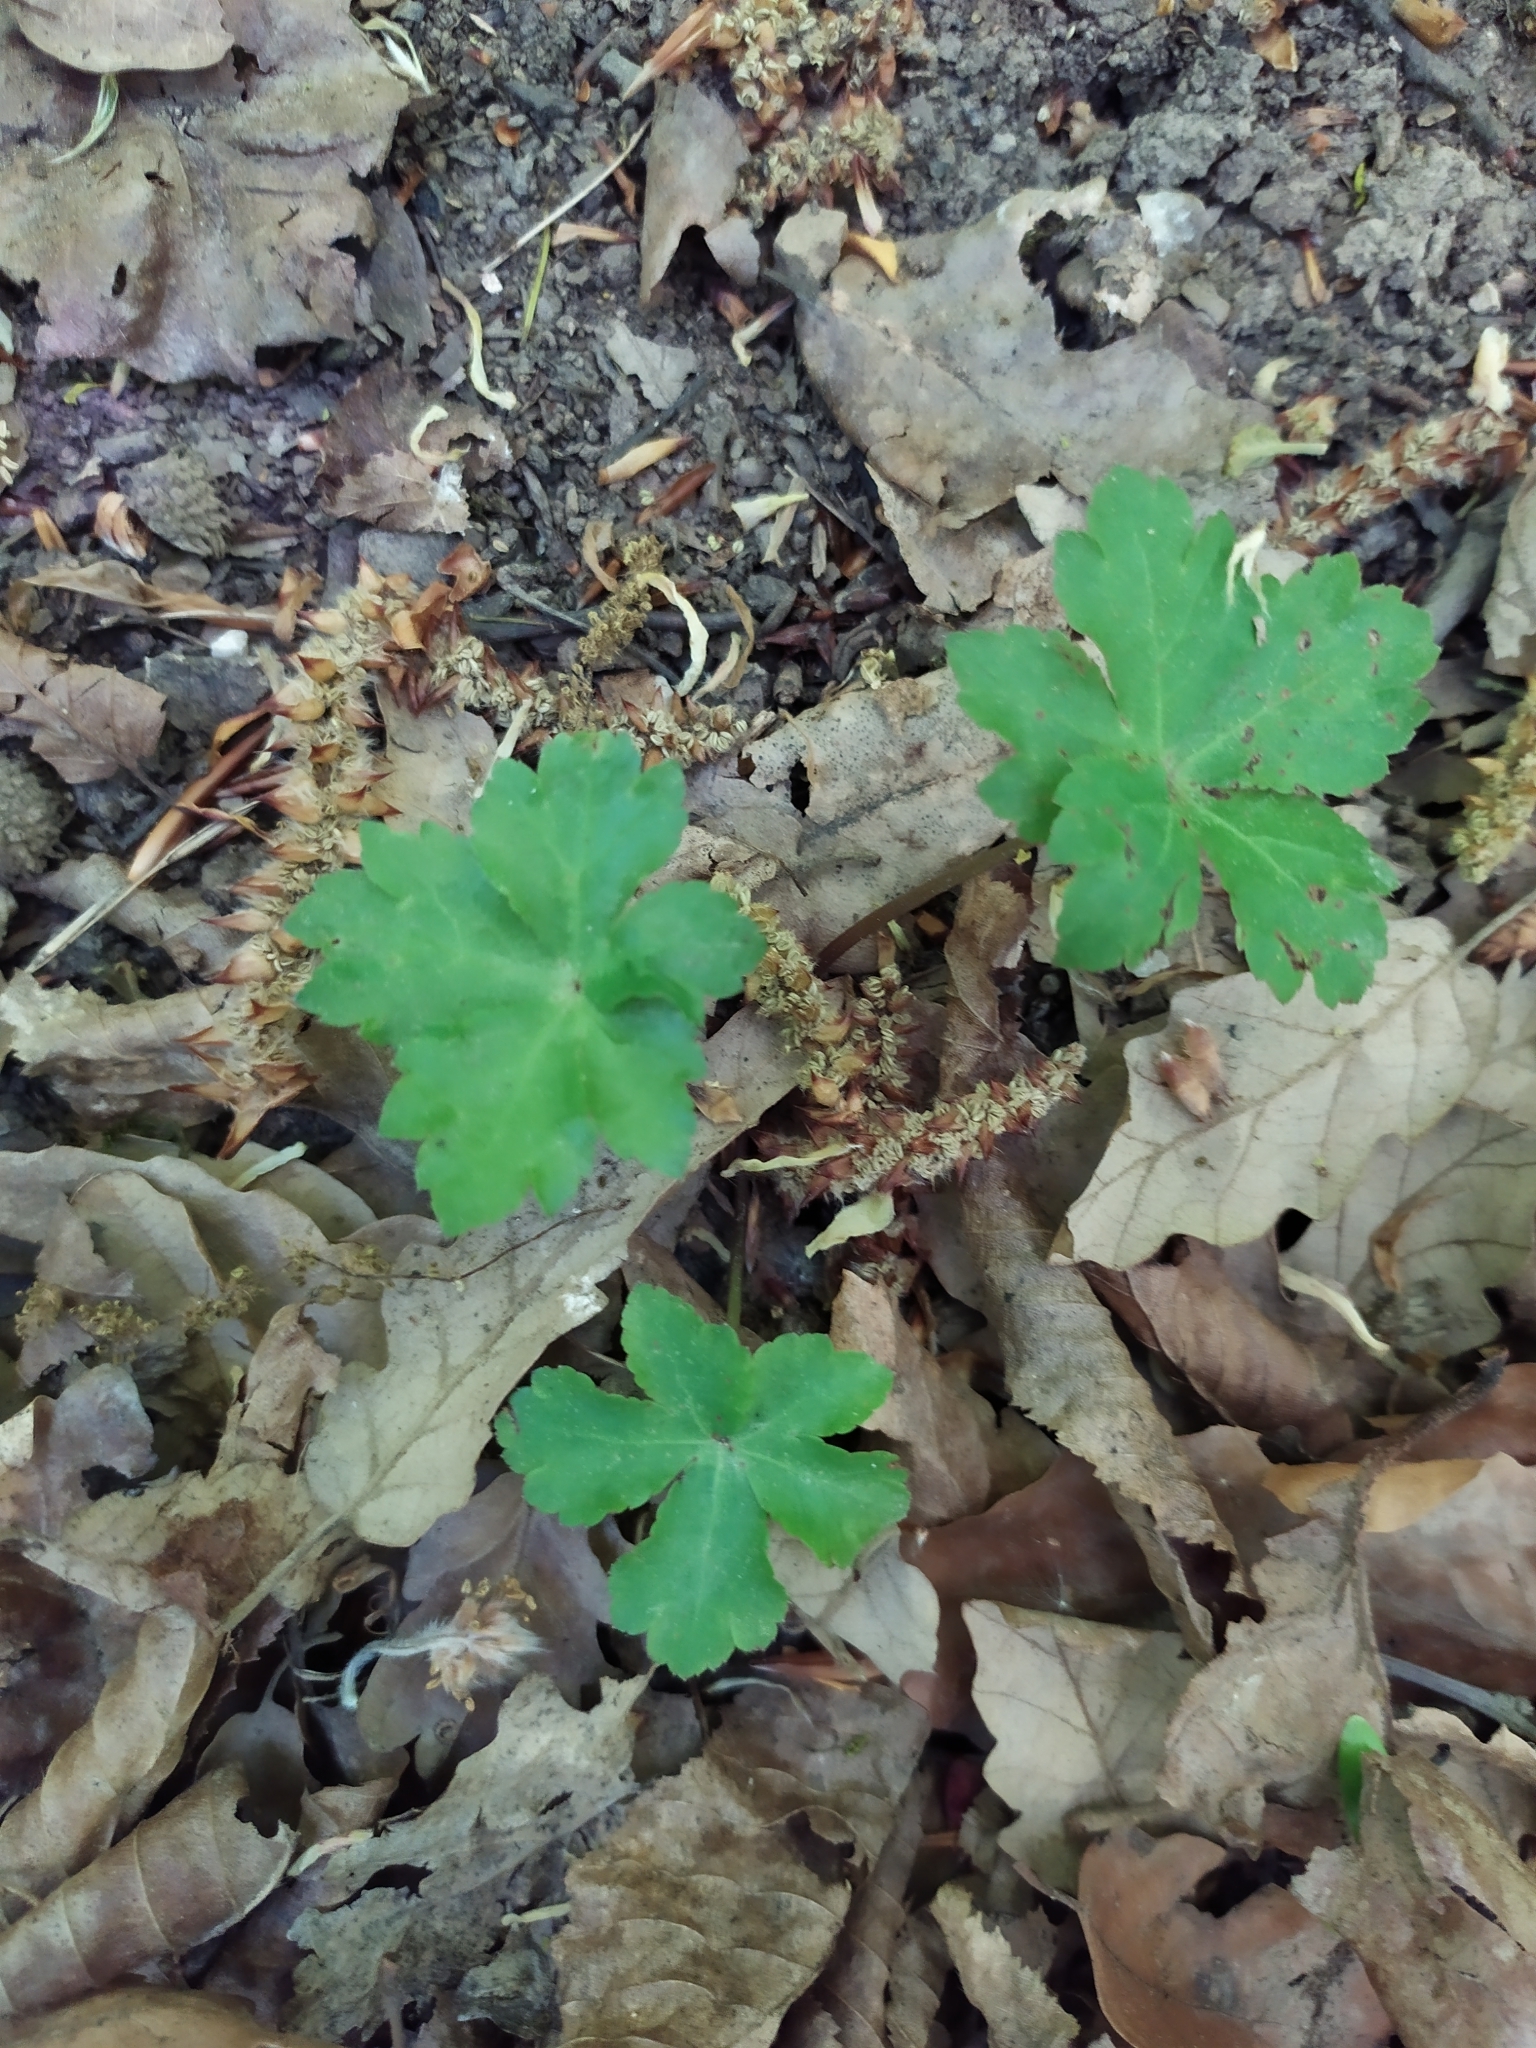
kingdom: Plantae
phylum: Tracheophyta
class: Magnoliopsida
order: Apiales
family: Apiaceae
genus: Sanicula
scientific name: Sanicula europaea
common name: Sanicle
